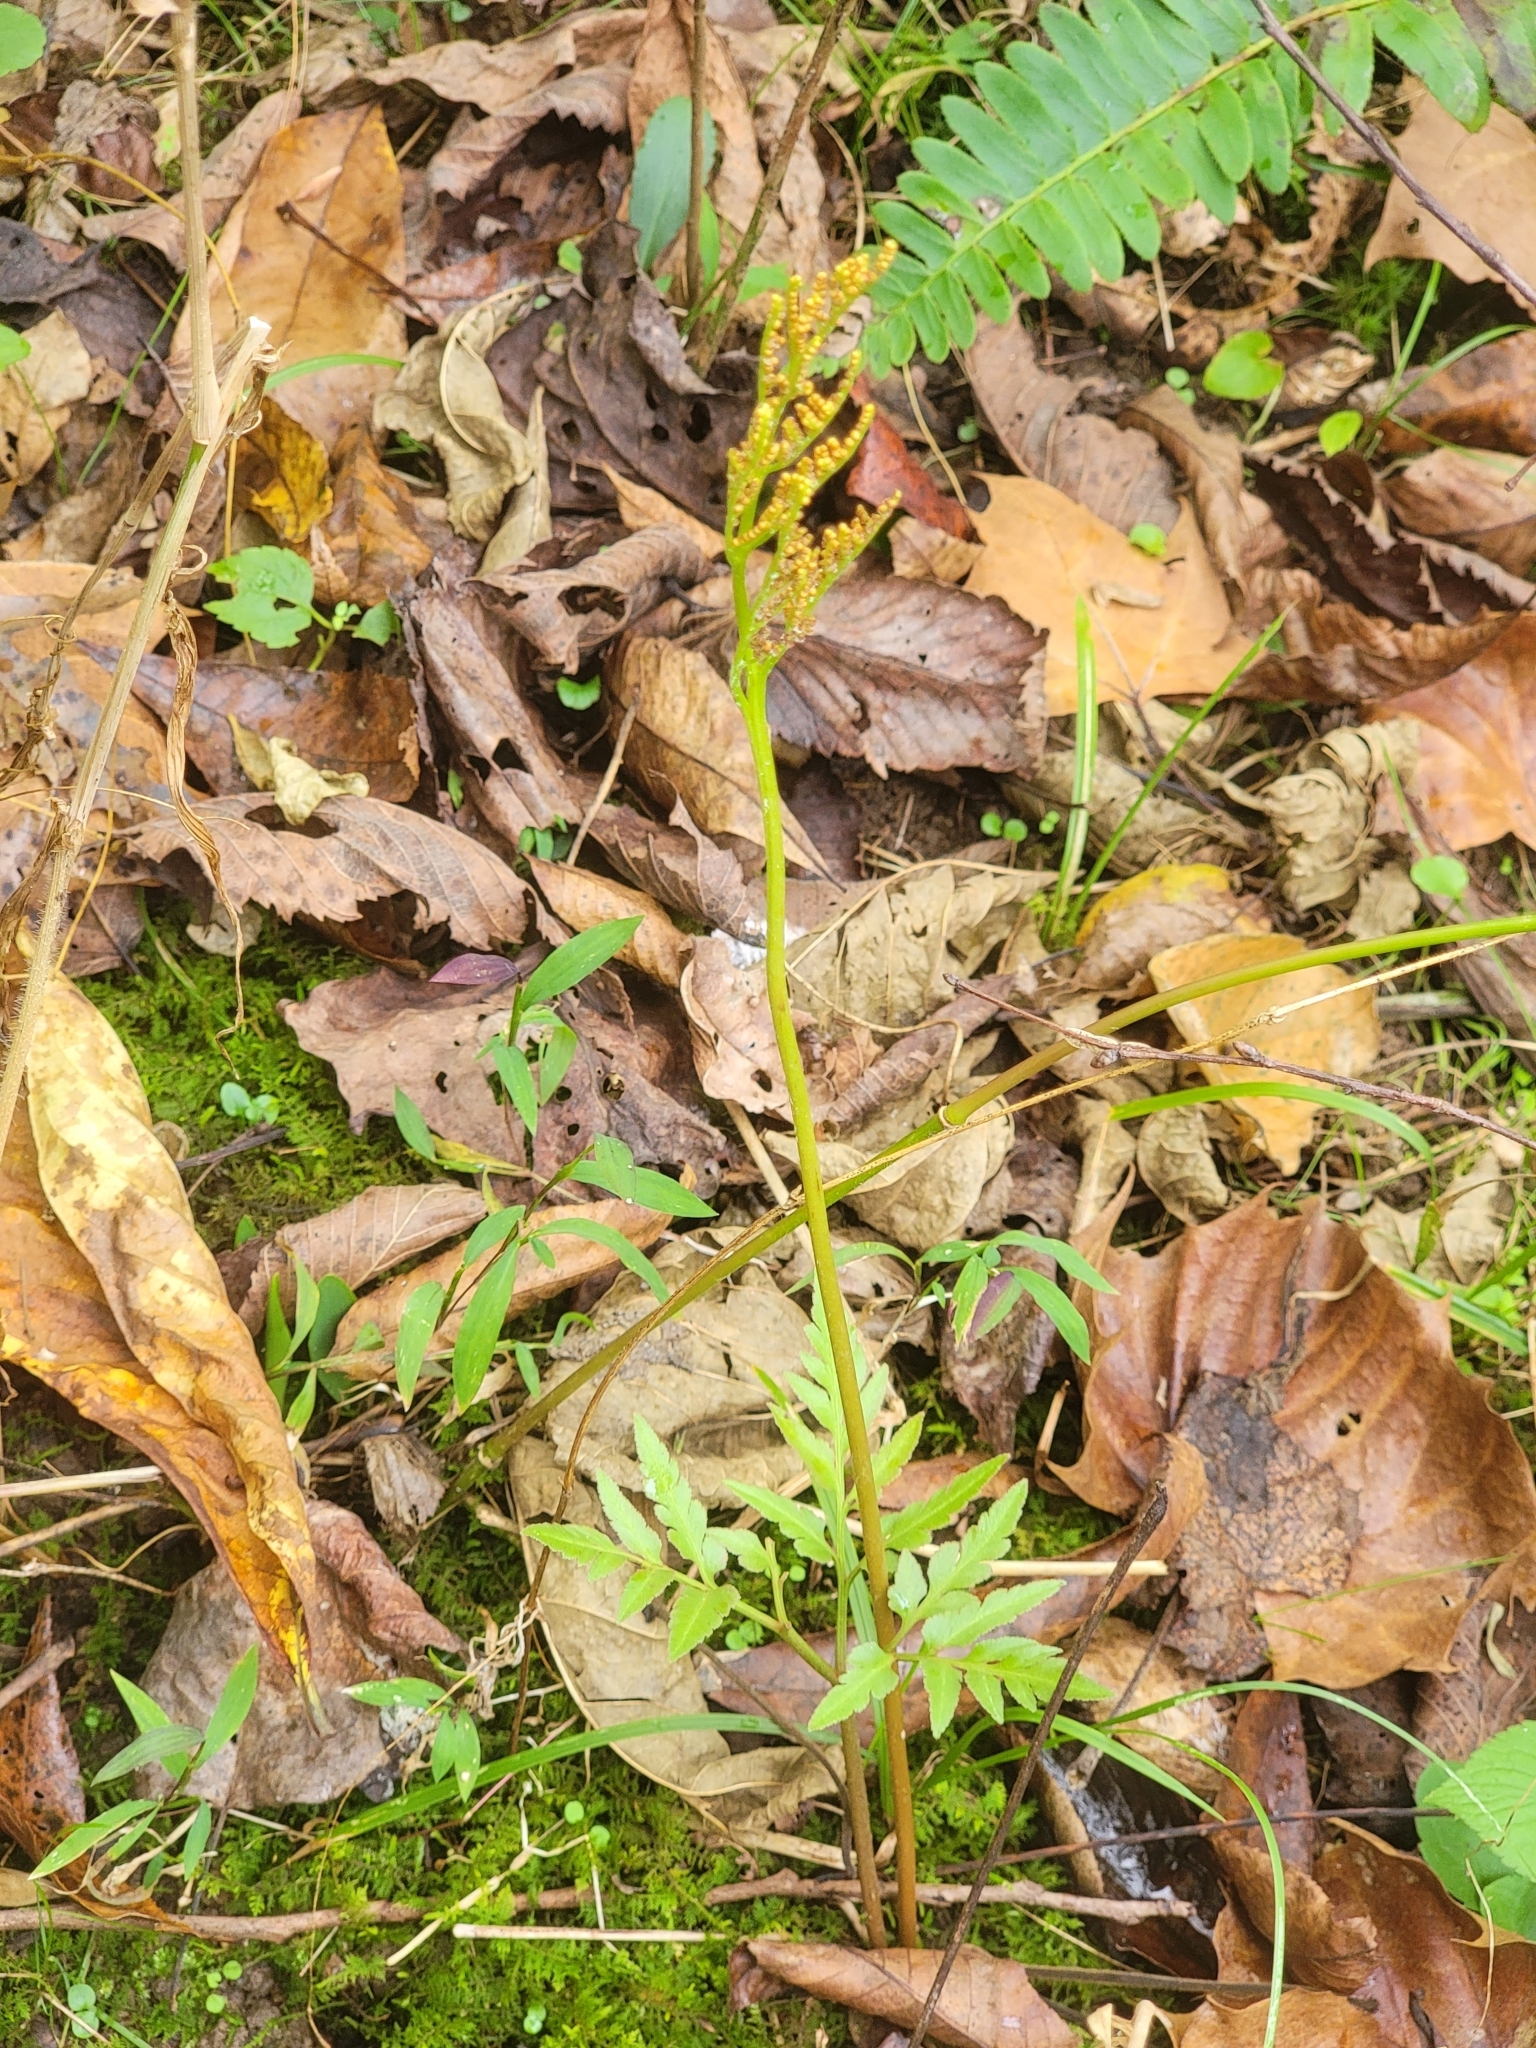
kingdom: Plantae
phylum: Tracheophyta
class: Polypodiopsida
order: Ophioglossales
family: Ophioglossaceae
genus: Sceptridium
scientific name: Sceptridium dissectum
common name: Cut-leaved grapefern
